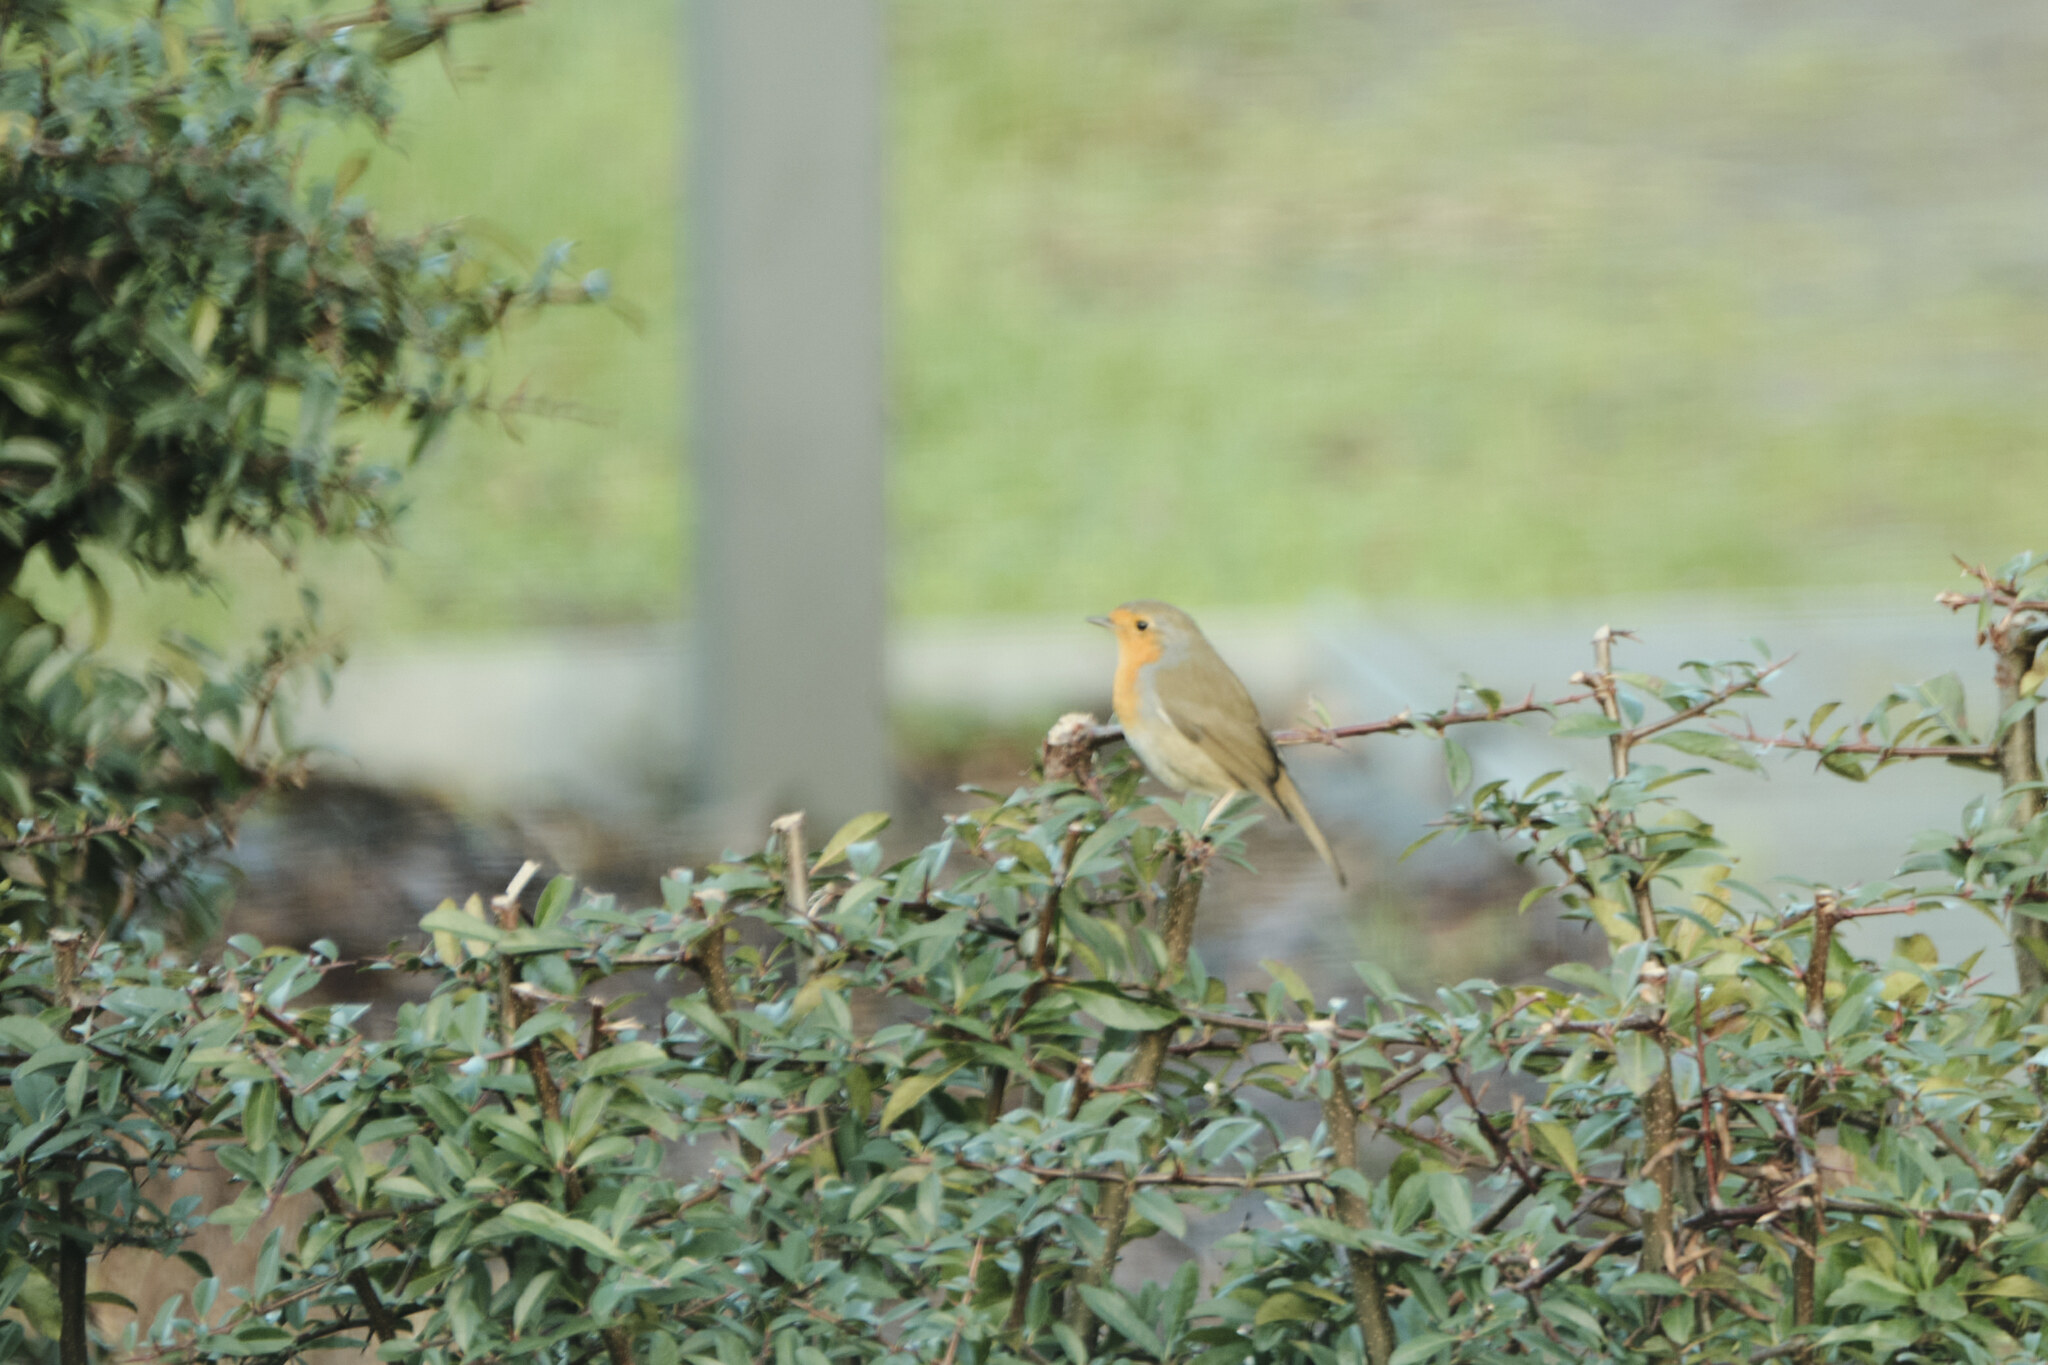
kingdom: Animalia
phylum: Chordata
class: Aves
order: Passeriformes
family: Muscicapidae
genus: Erithacus
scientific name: Erithacus rubecula
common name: European robin
